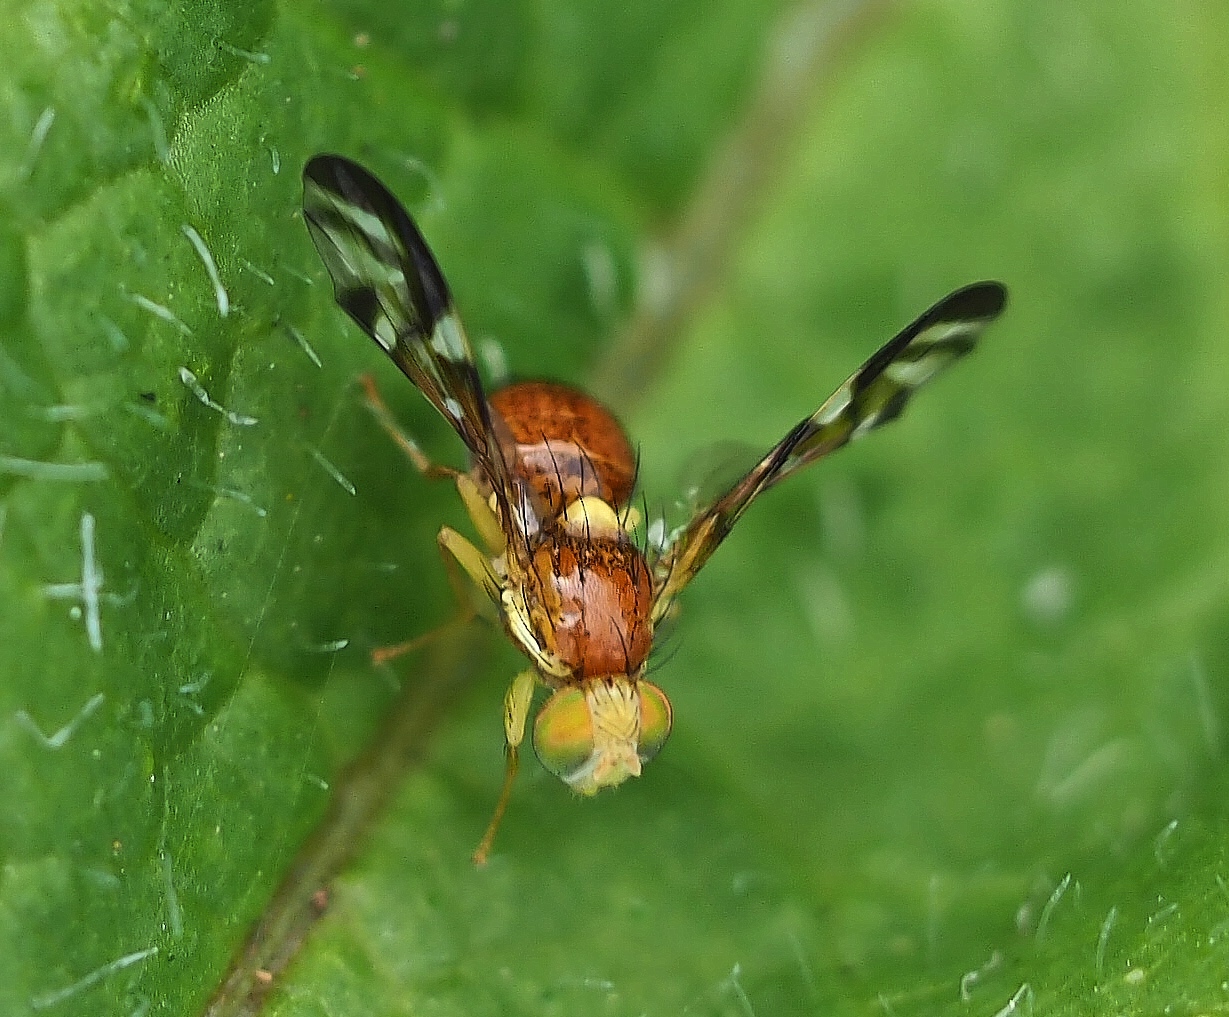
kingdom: Animalia
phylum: Arthropoda
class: Insecta
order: Diptera
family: Tephritidae
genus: Euleia
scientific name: Euleia heraclei
